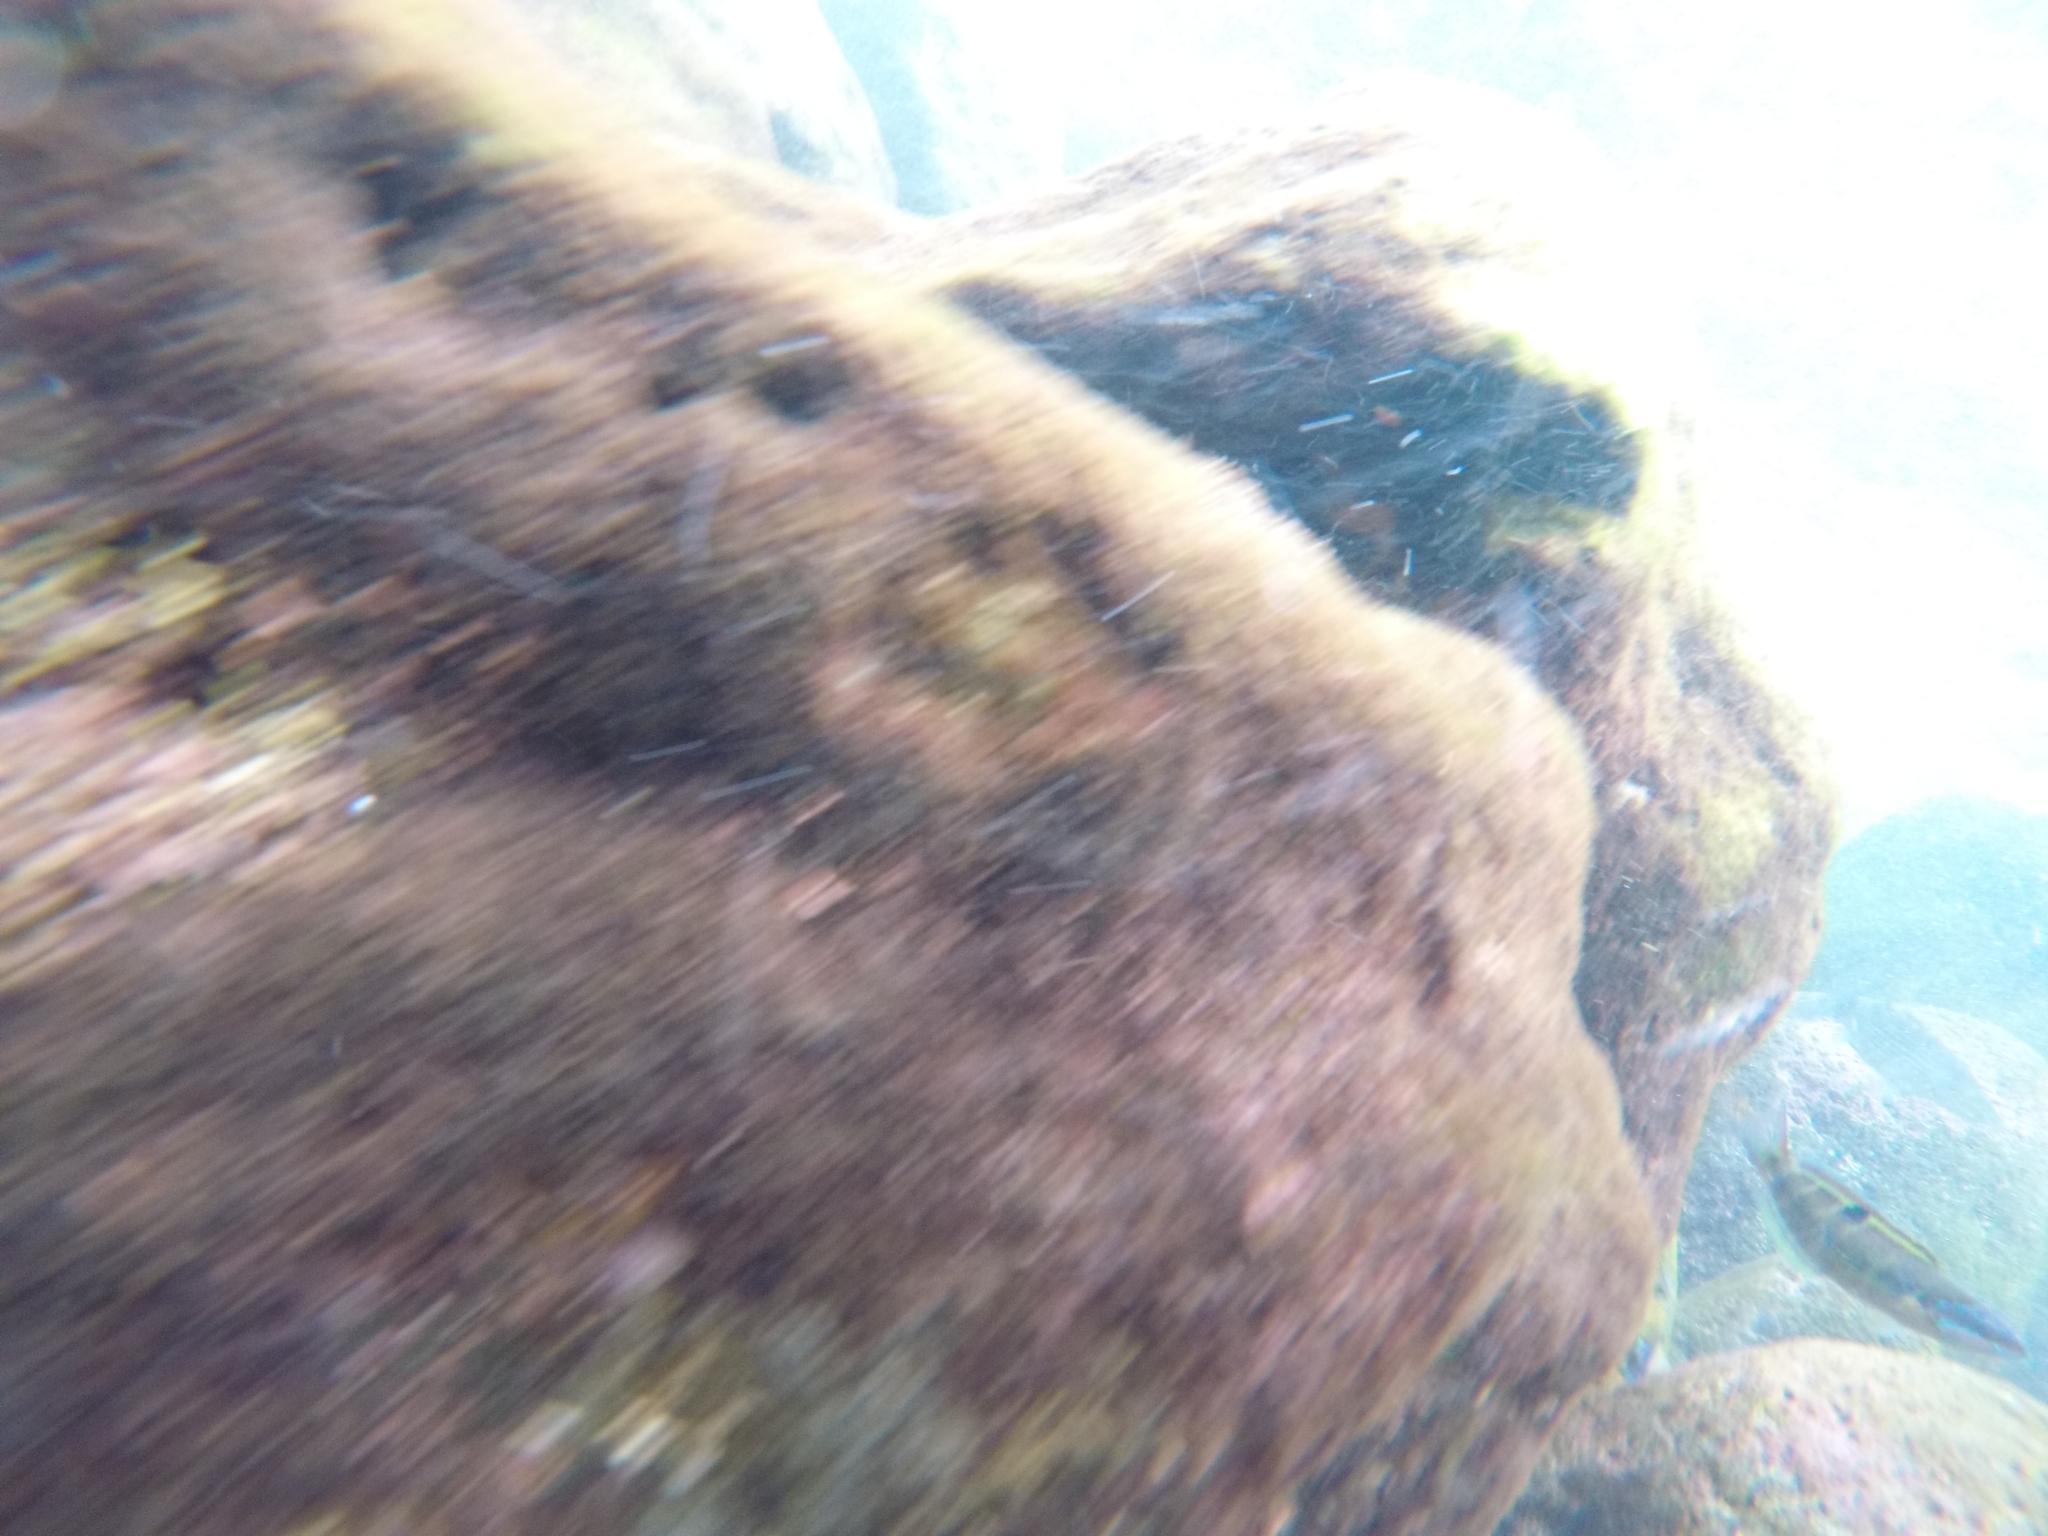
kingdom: Animalia
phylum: Chordata
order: Perciformes
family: Labridae
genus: Thalassoma
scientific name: Thalassoma pavo
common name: Ornate wrasse
